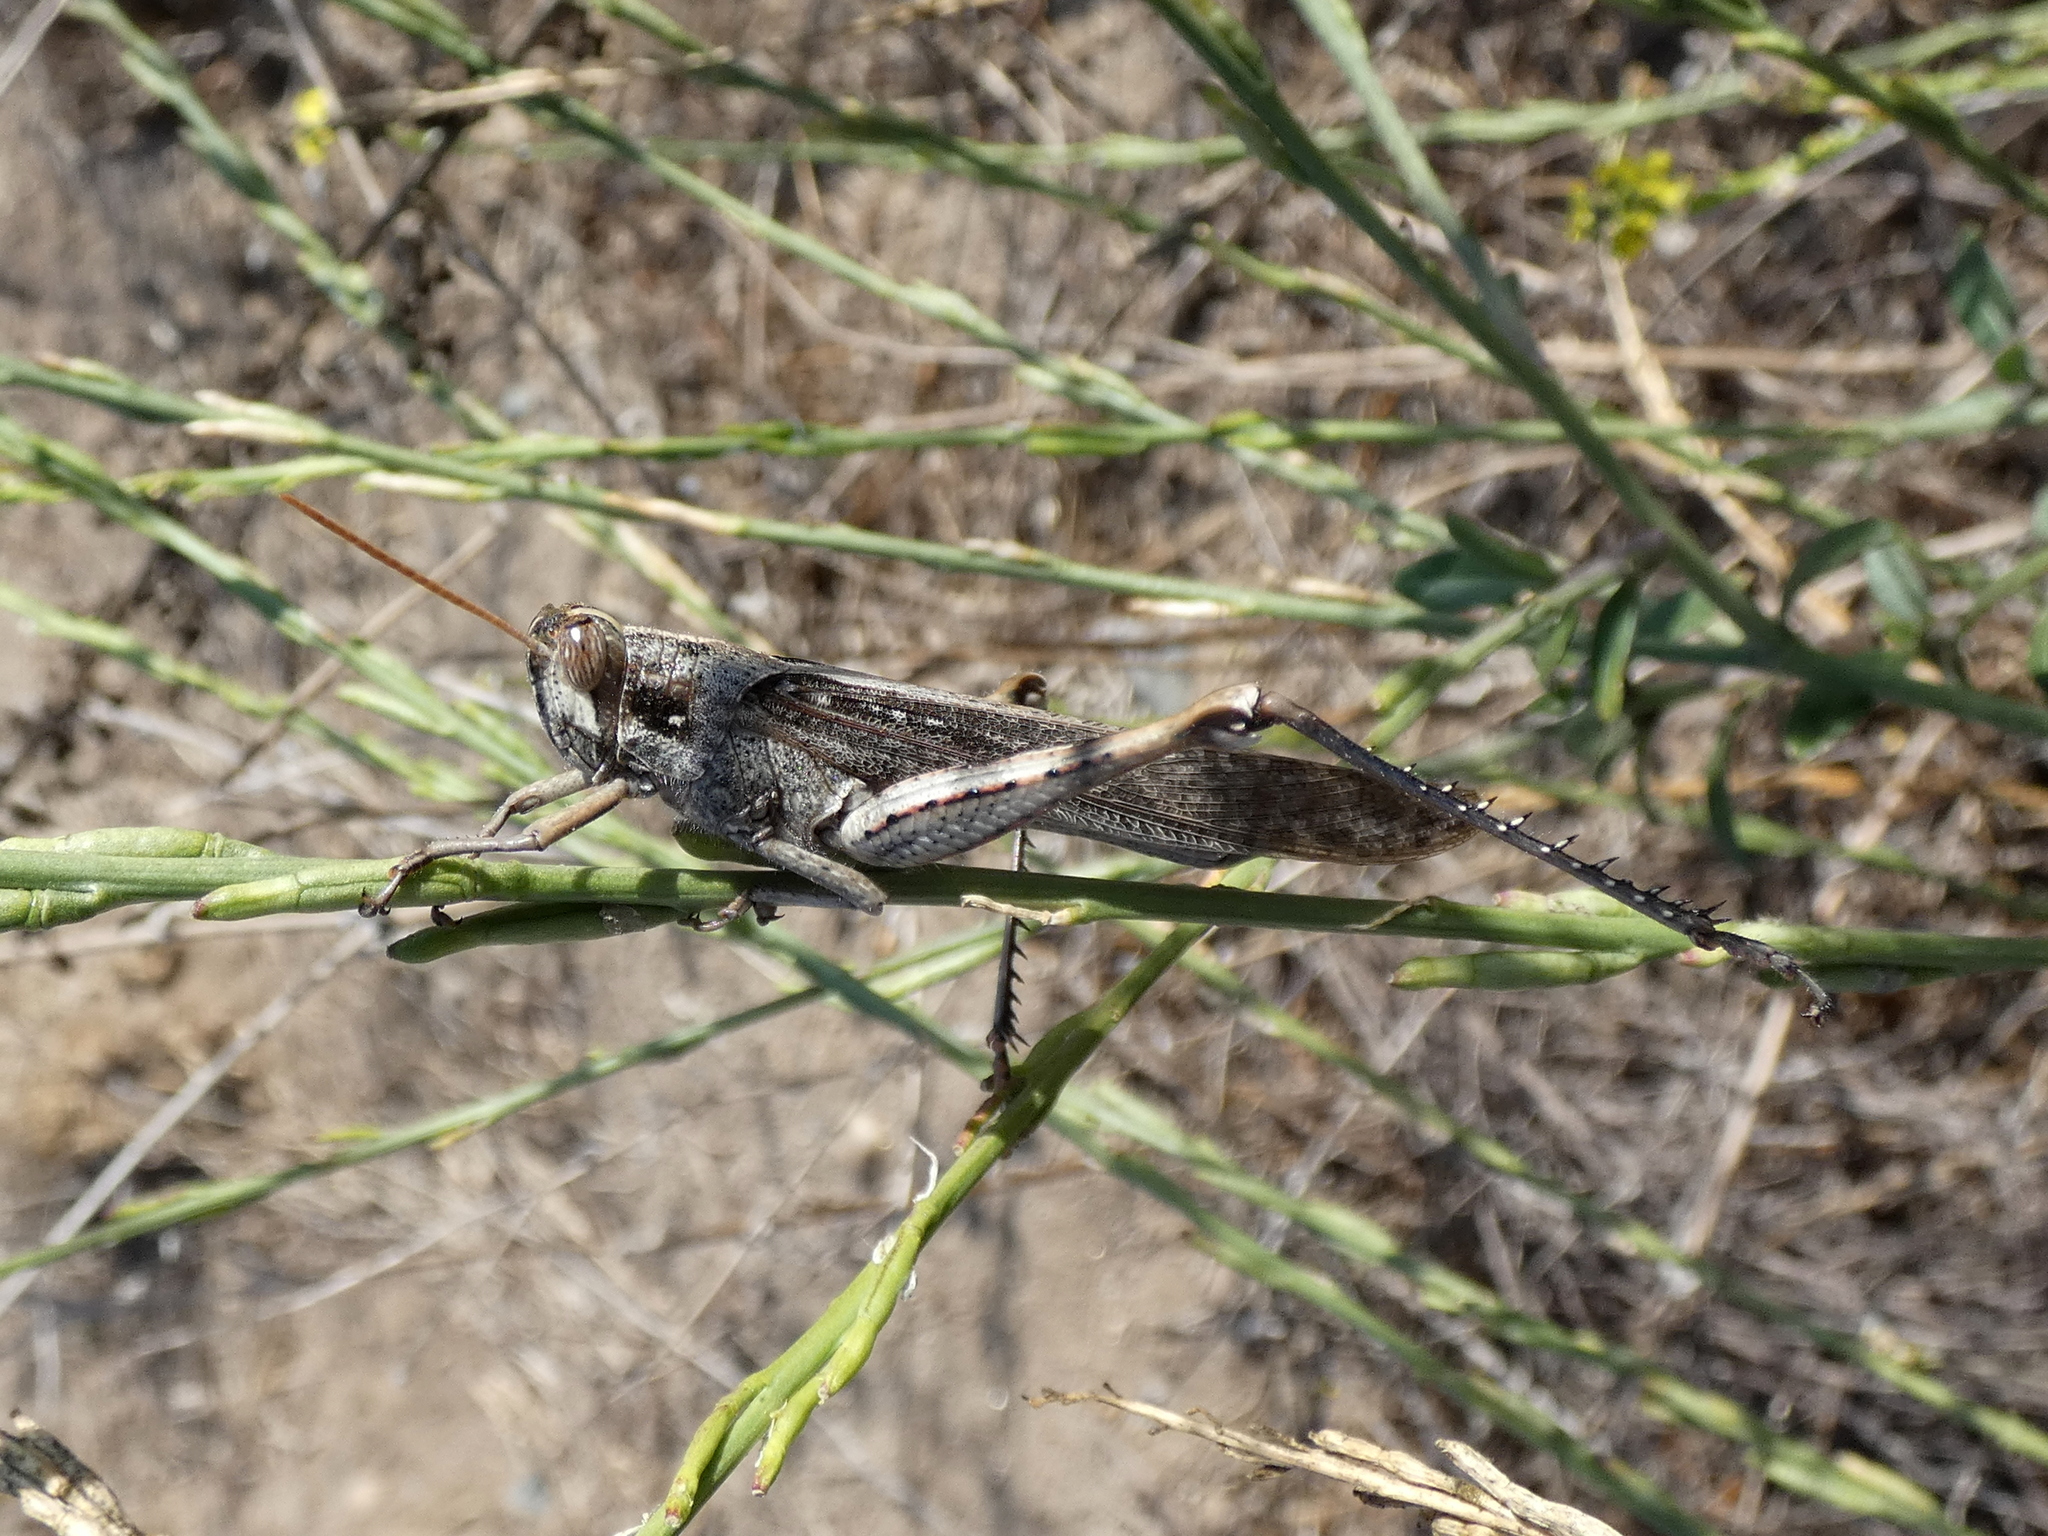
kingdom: Animalia
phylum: Arthropoda
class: Insecta
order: Orthoptera
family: Acrididae
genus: Schistocerca
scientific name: Schistocerca nitens
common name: Vagrant grasshopper
